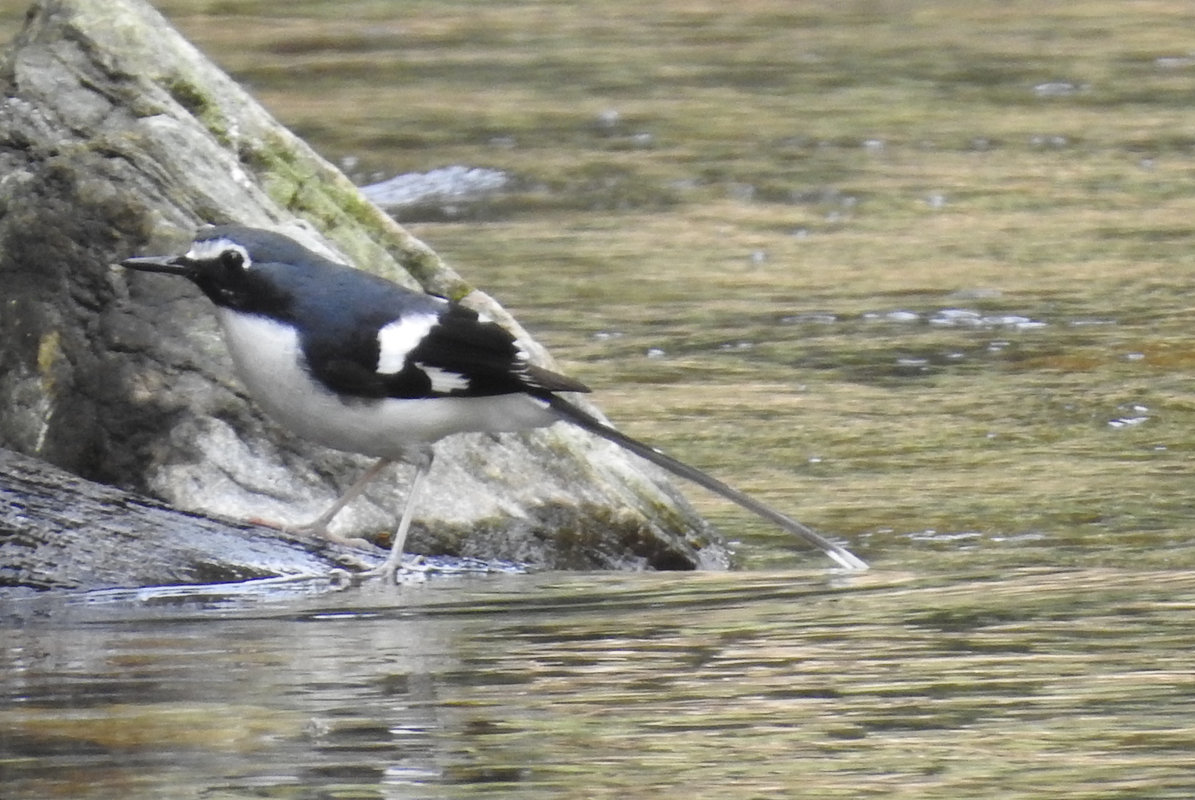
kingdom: Animalia
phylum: Chordata
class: Aves
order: Passeriformes
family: Muscicapidae
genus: Enicurus
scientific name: Enicurus schistaceus
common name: Slaty-backed forktail
